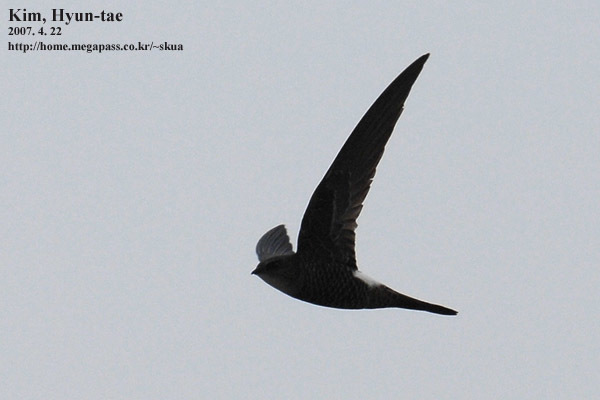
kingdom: Animalia
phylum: Chordata
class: Aves
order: Apodiformes
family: Apodidae
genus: Apus
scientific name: Apus pacificus
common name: Pacific swift
